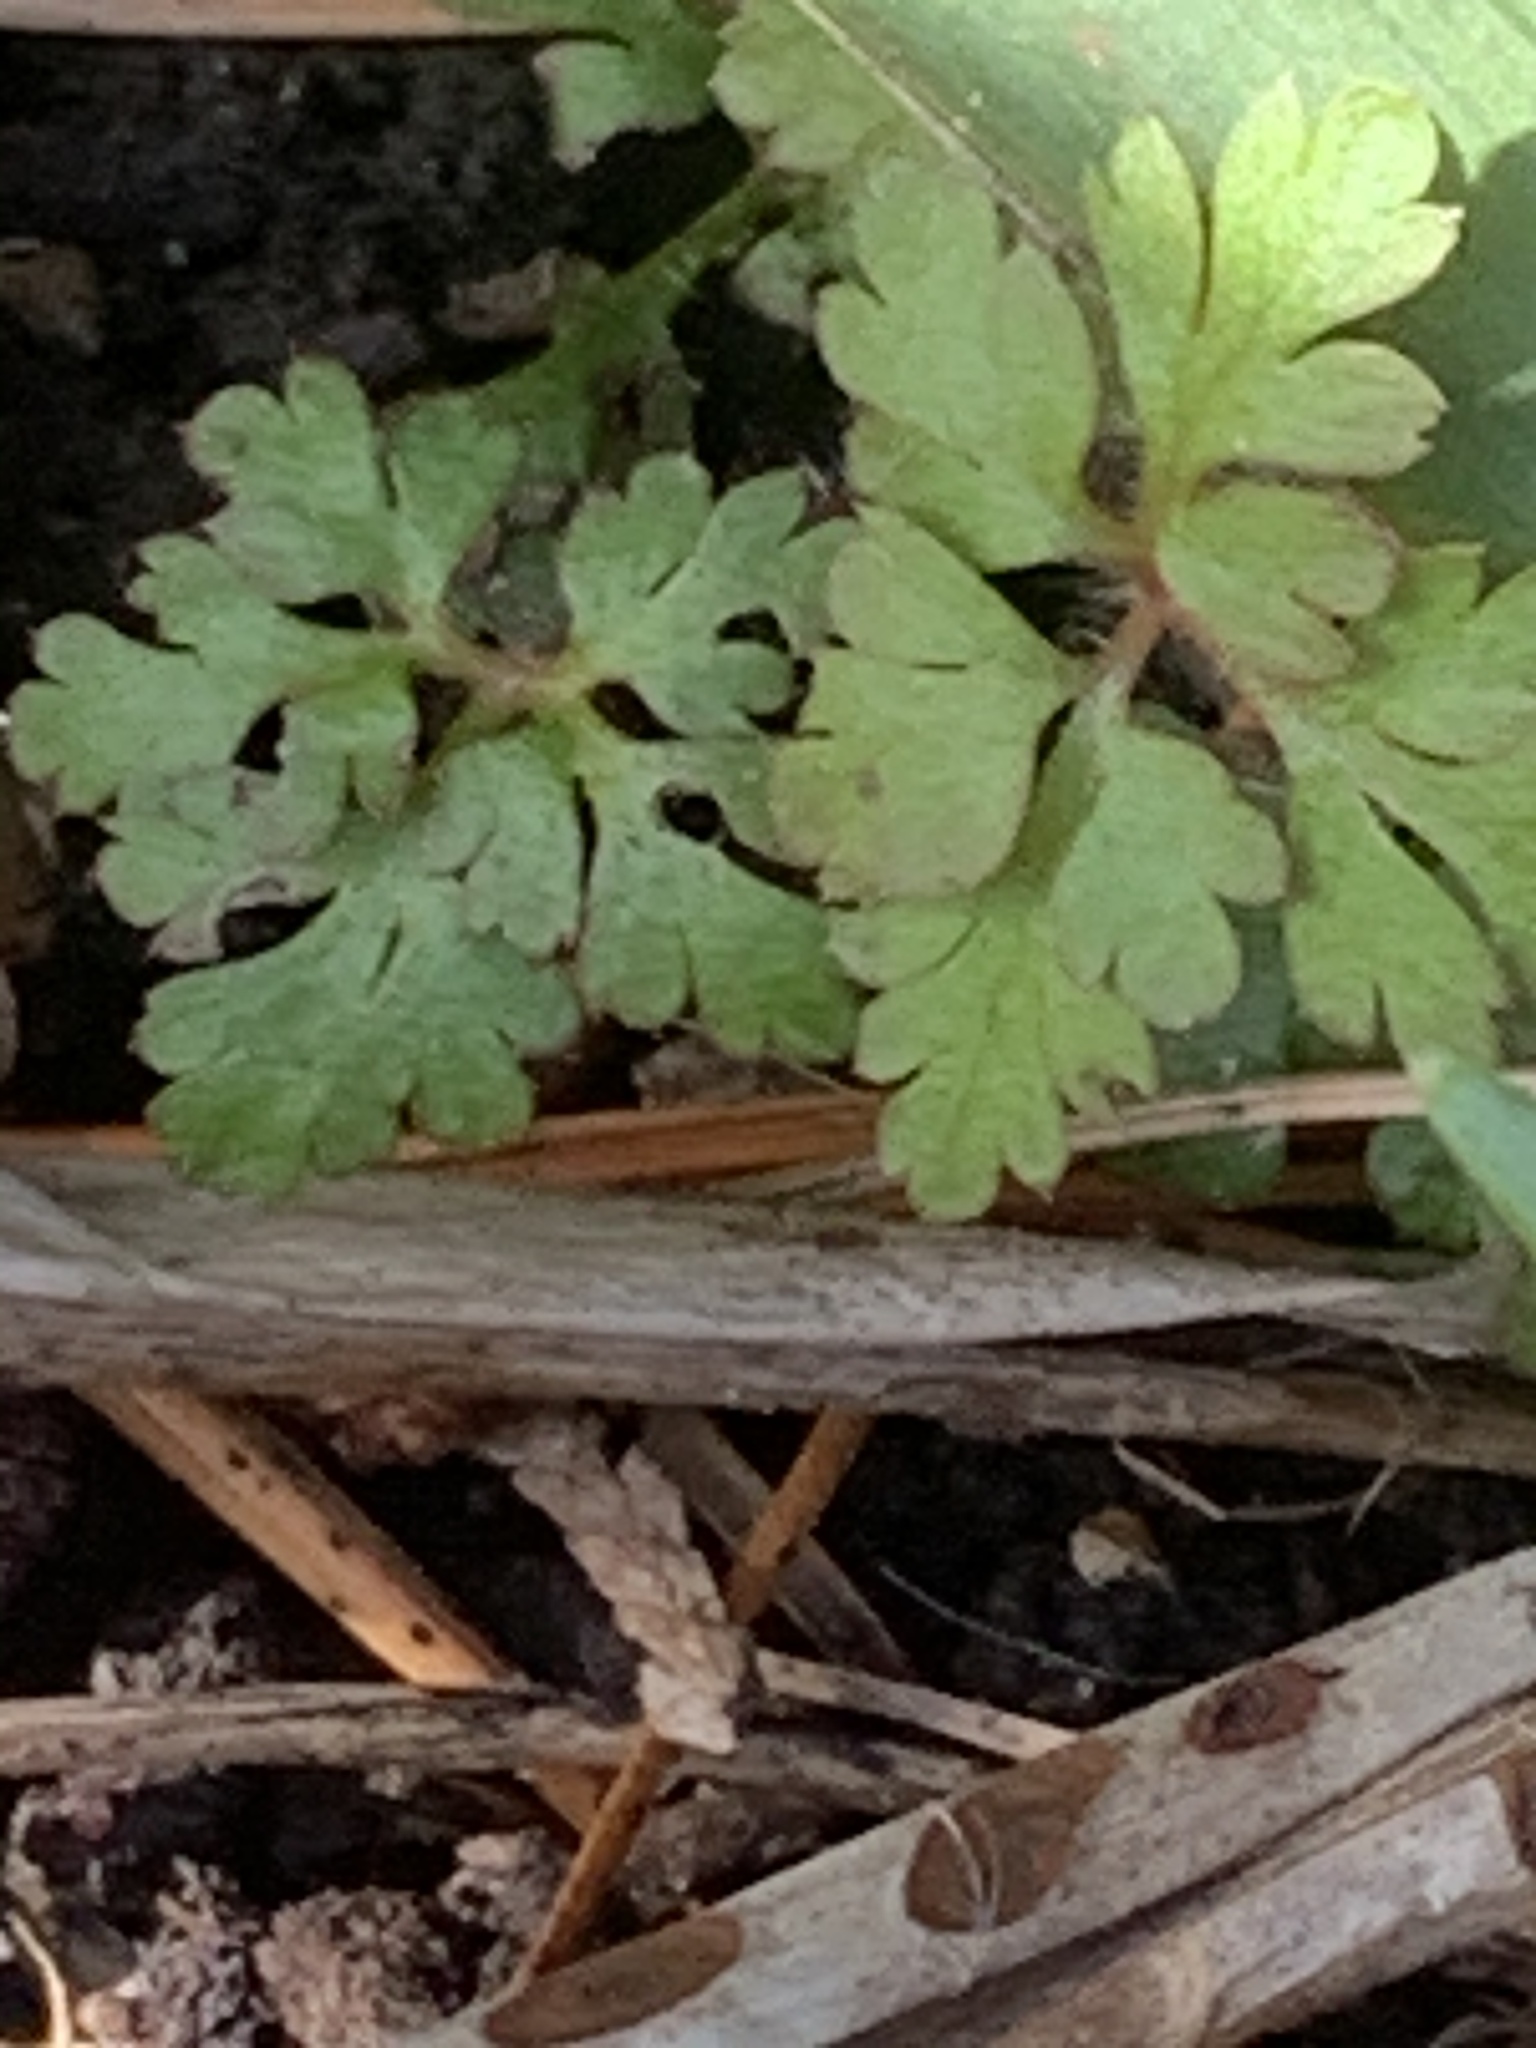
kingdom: Plantae
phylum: Tracheophyta
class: Magnoliopsida
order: Geraniales
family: Geraniaceae
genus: Geranium
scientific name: Geranium robertianum
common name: Herb-robert
